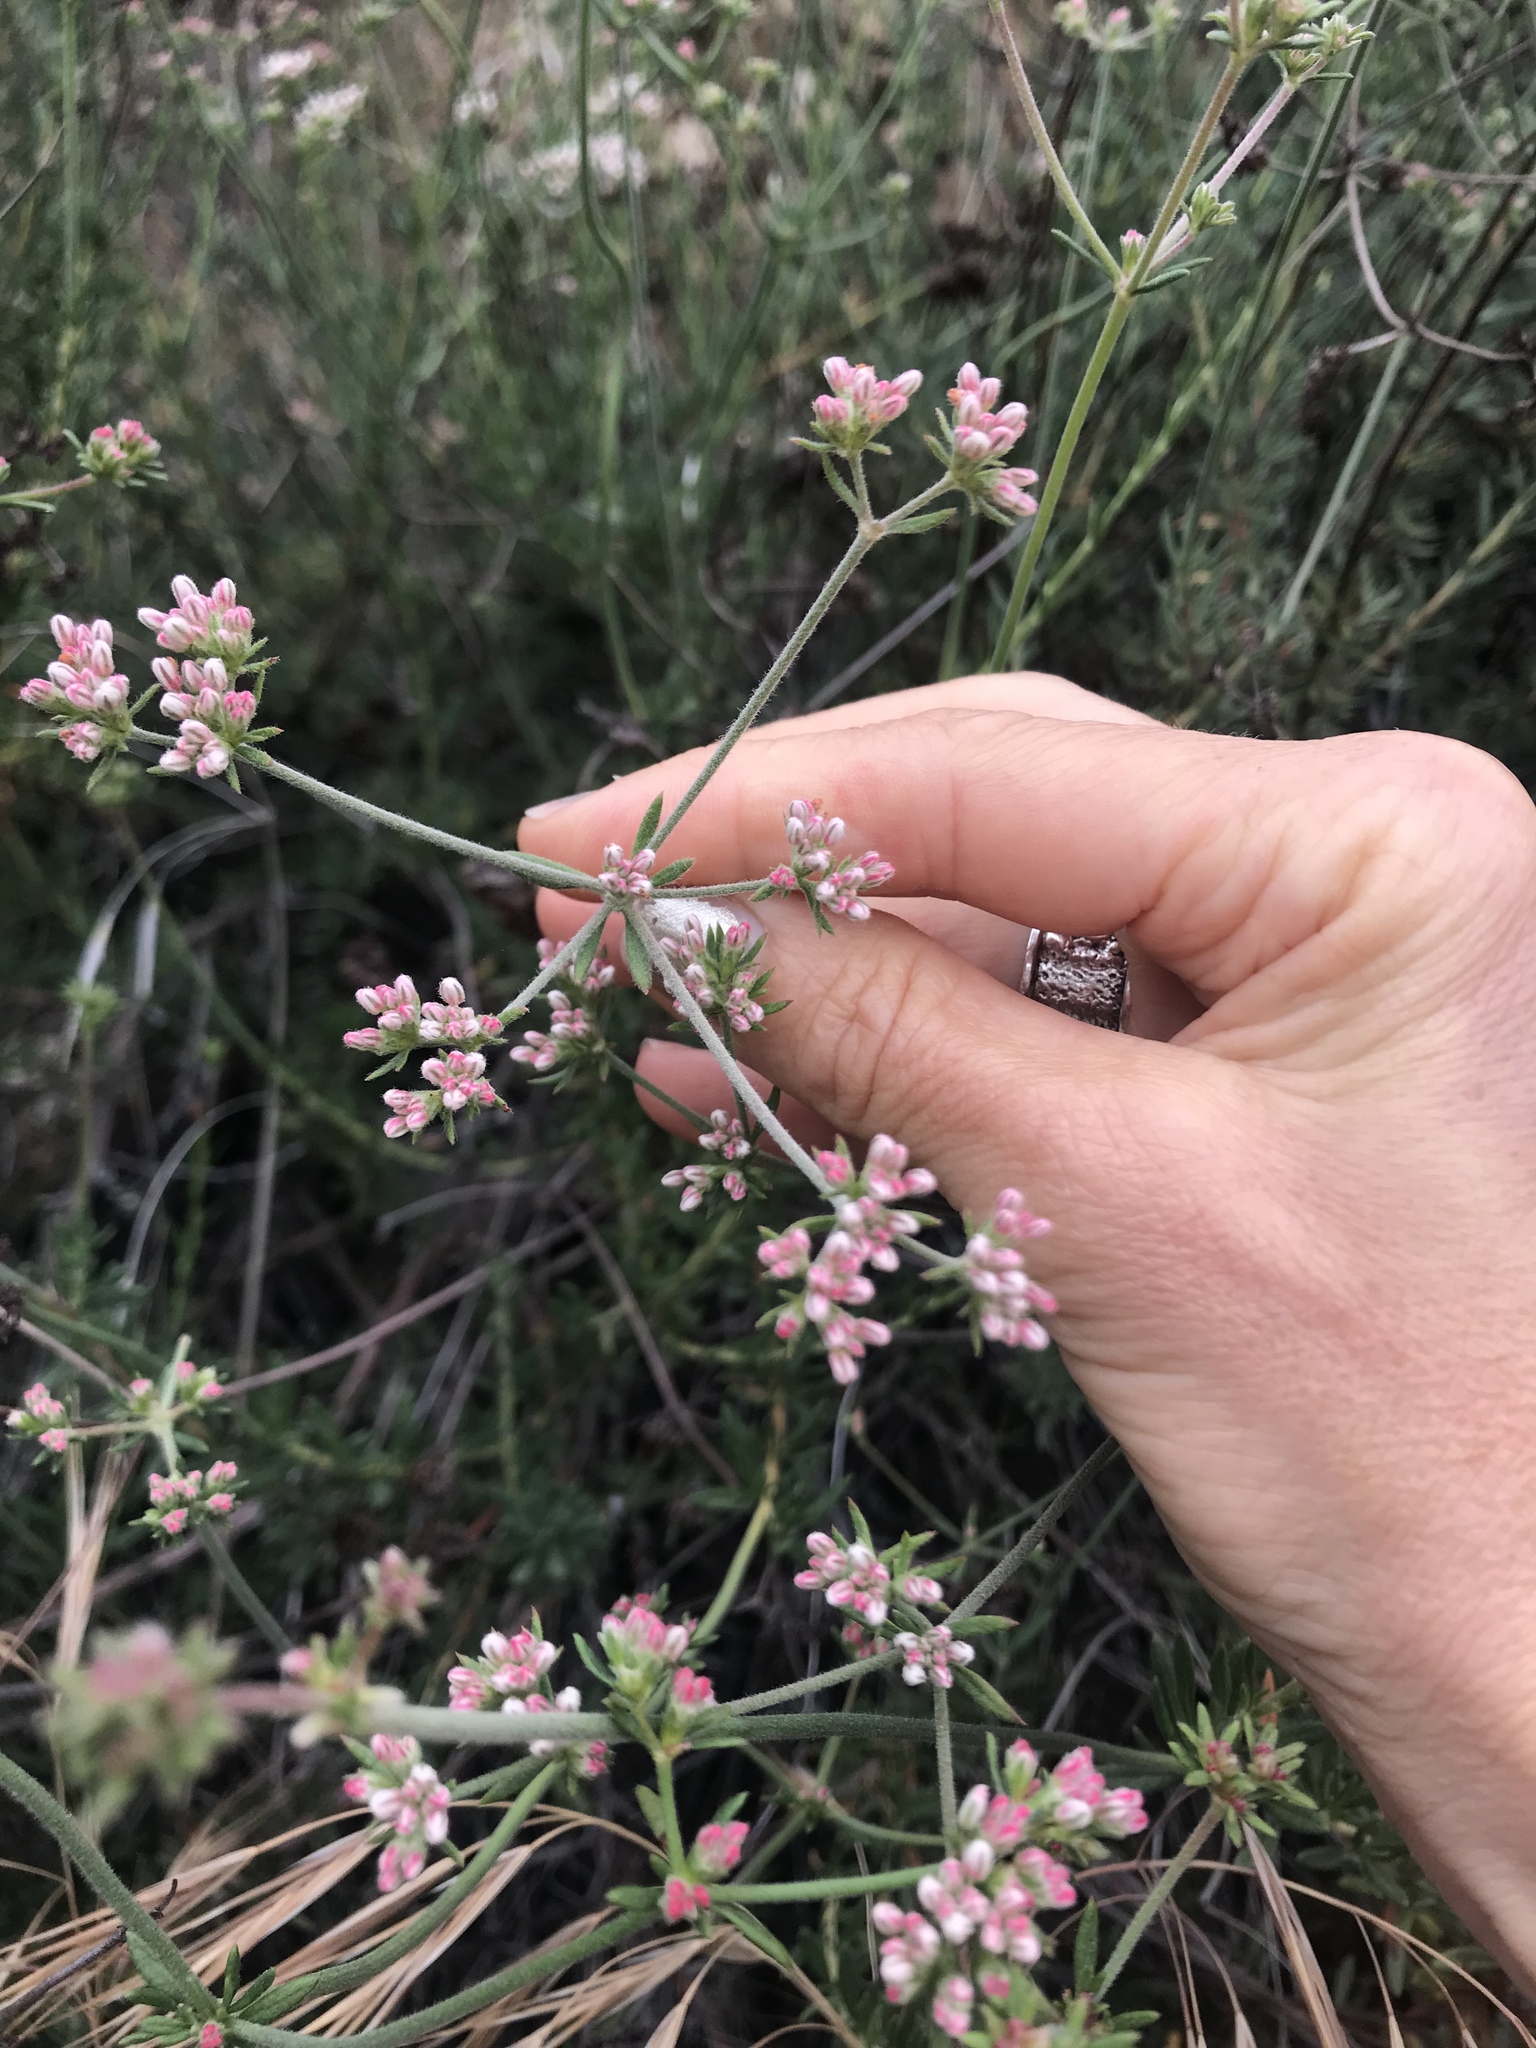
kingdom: Plantae
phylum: Tracheophyta
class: Magnoliopsida
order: Caryophyllales
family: Polygonaceae
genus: Eriogonum
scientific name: Eriogonum fasciculatum
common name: California wild buckwheat
